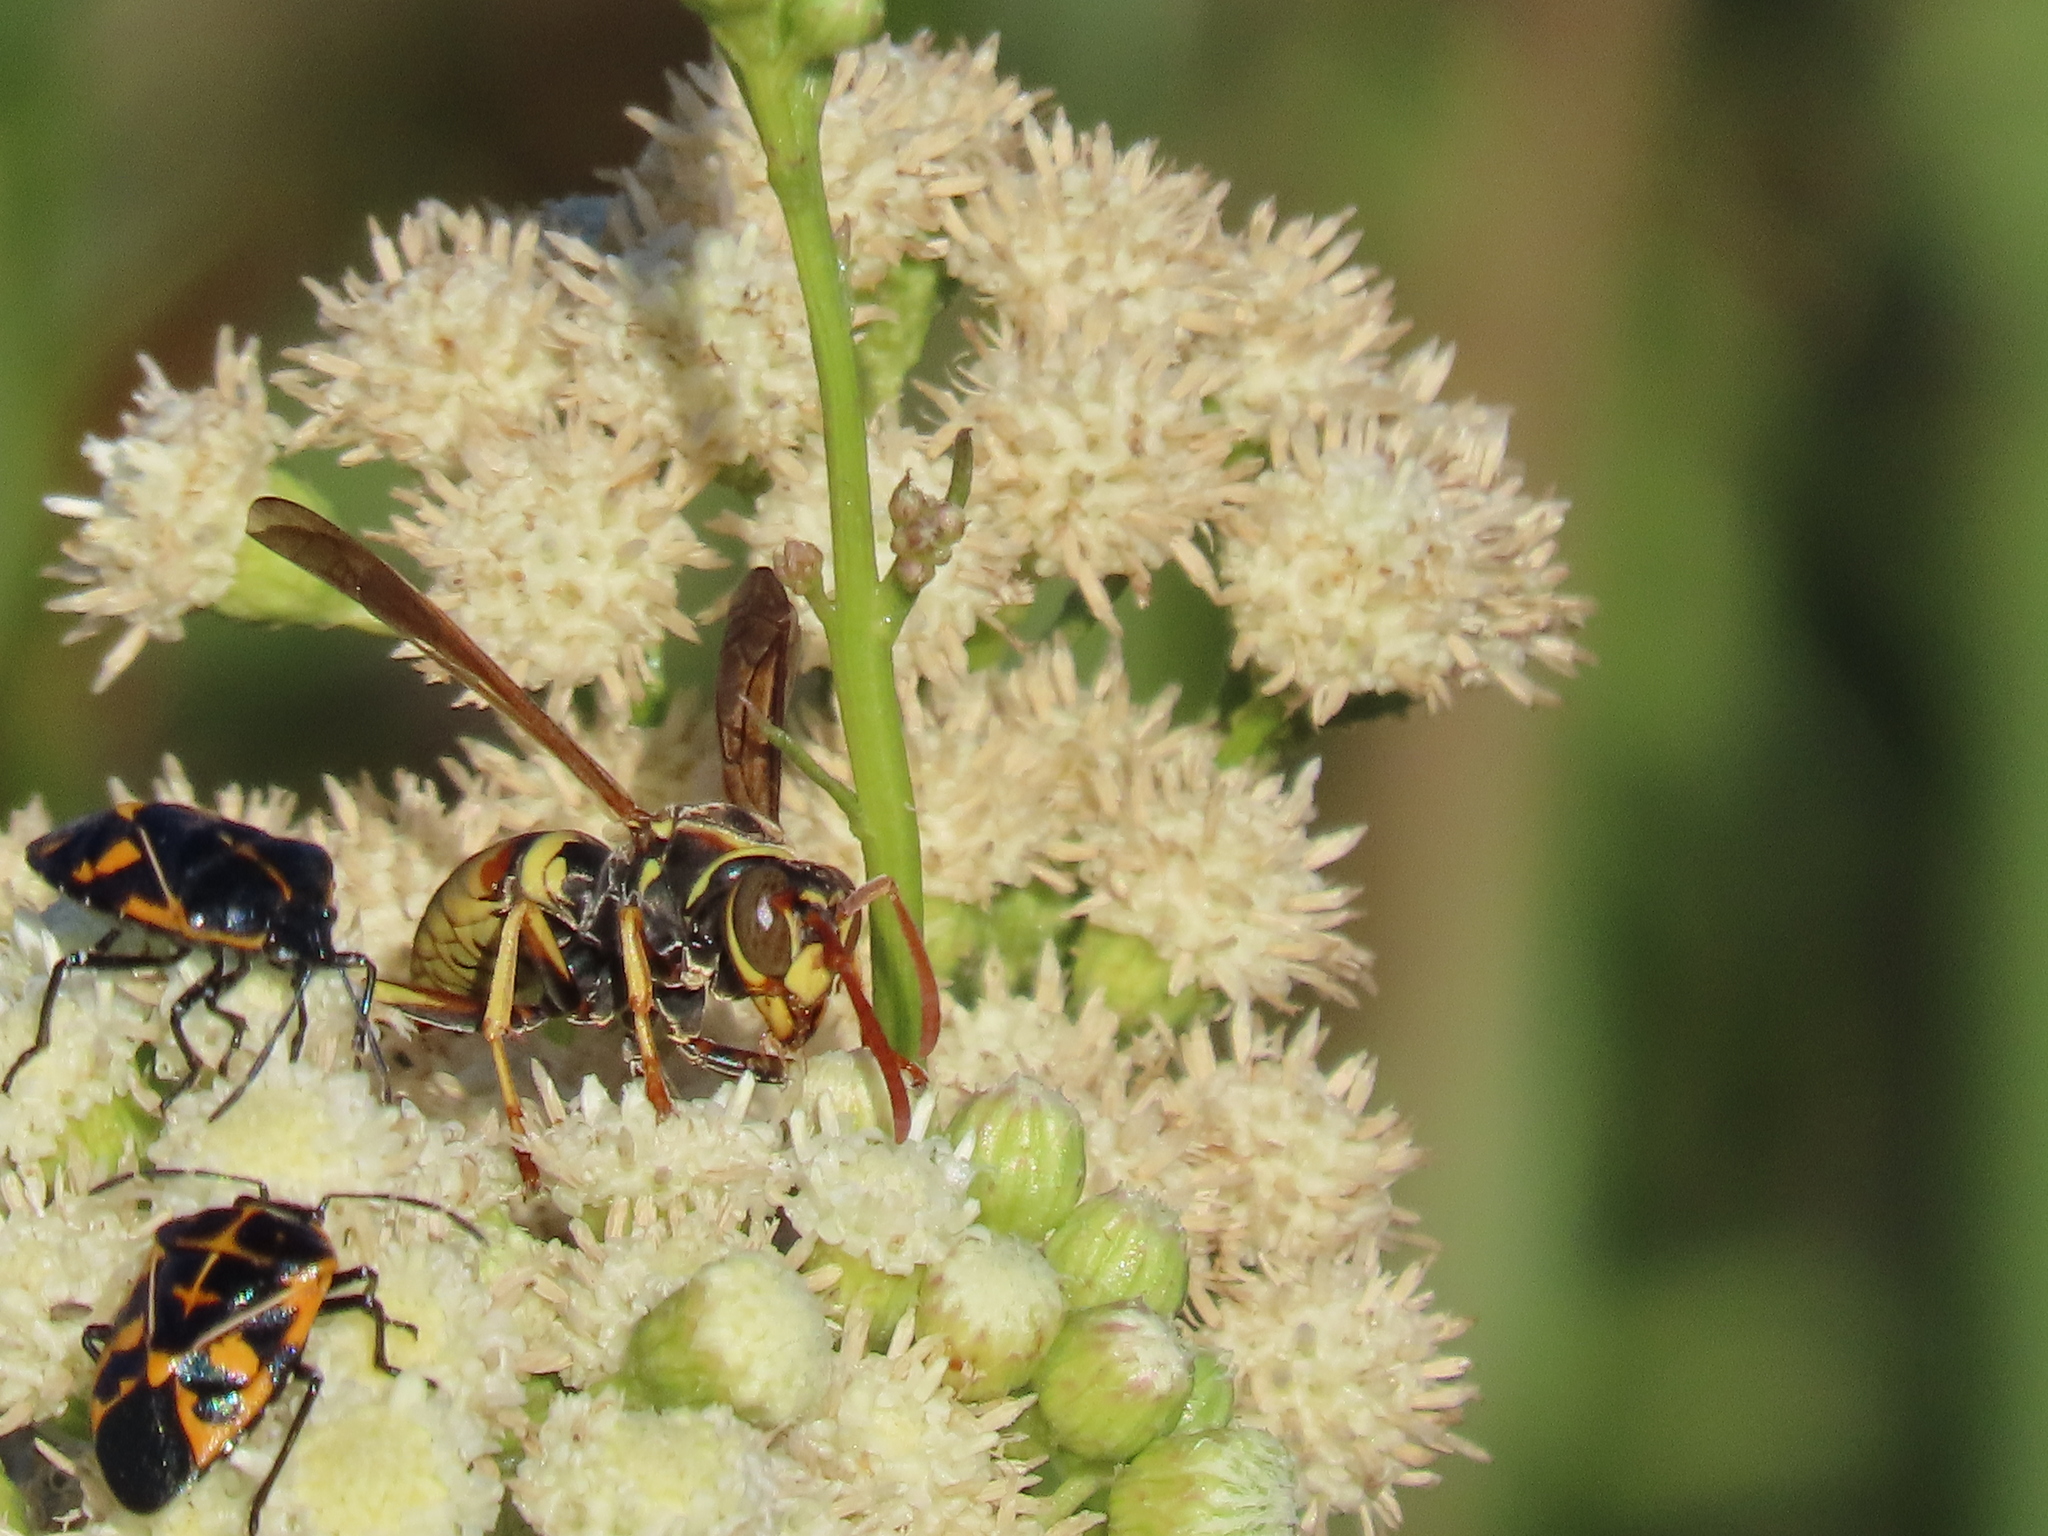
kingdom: Animalia
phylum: Arthropoda
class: Insecta
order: Hymenoptera
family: Eumenidae
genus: Polistes
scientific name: Polistes aurifer
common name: Paper wasp
